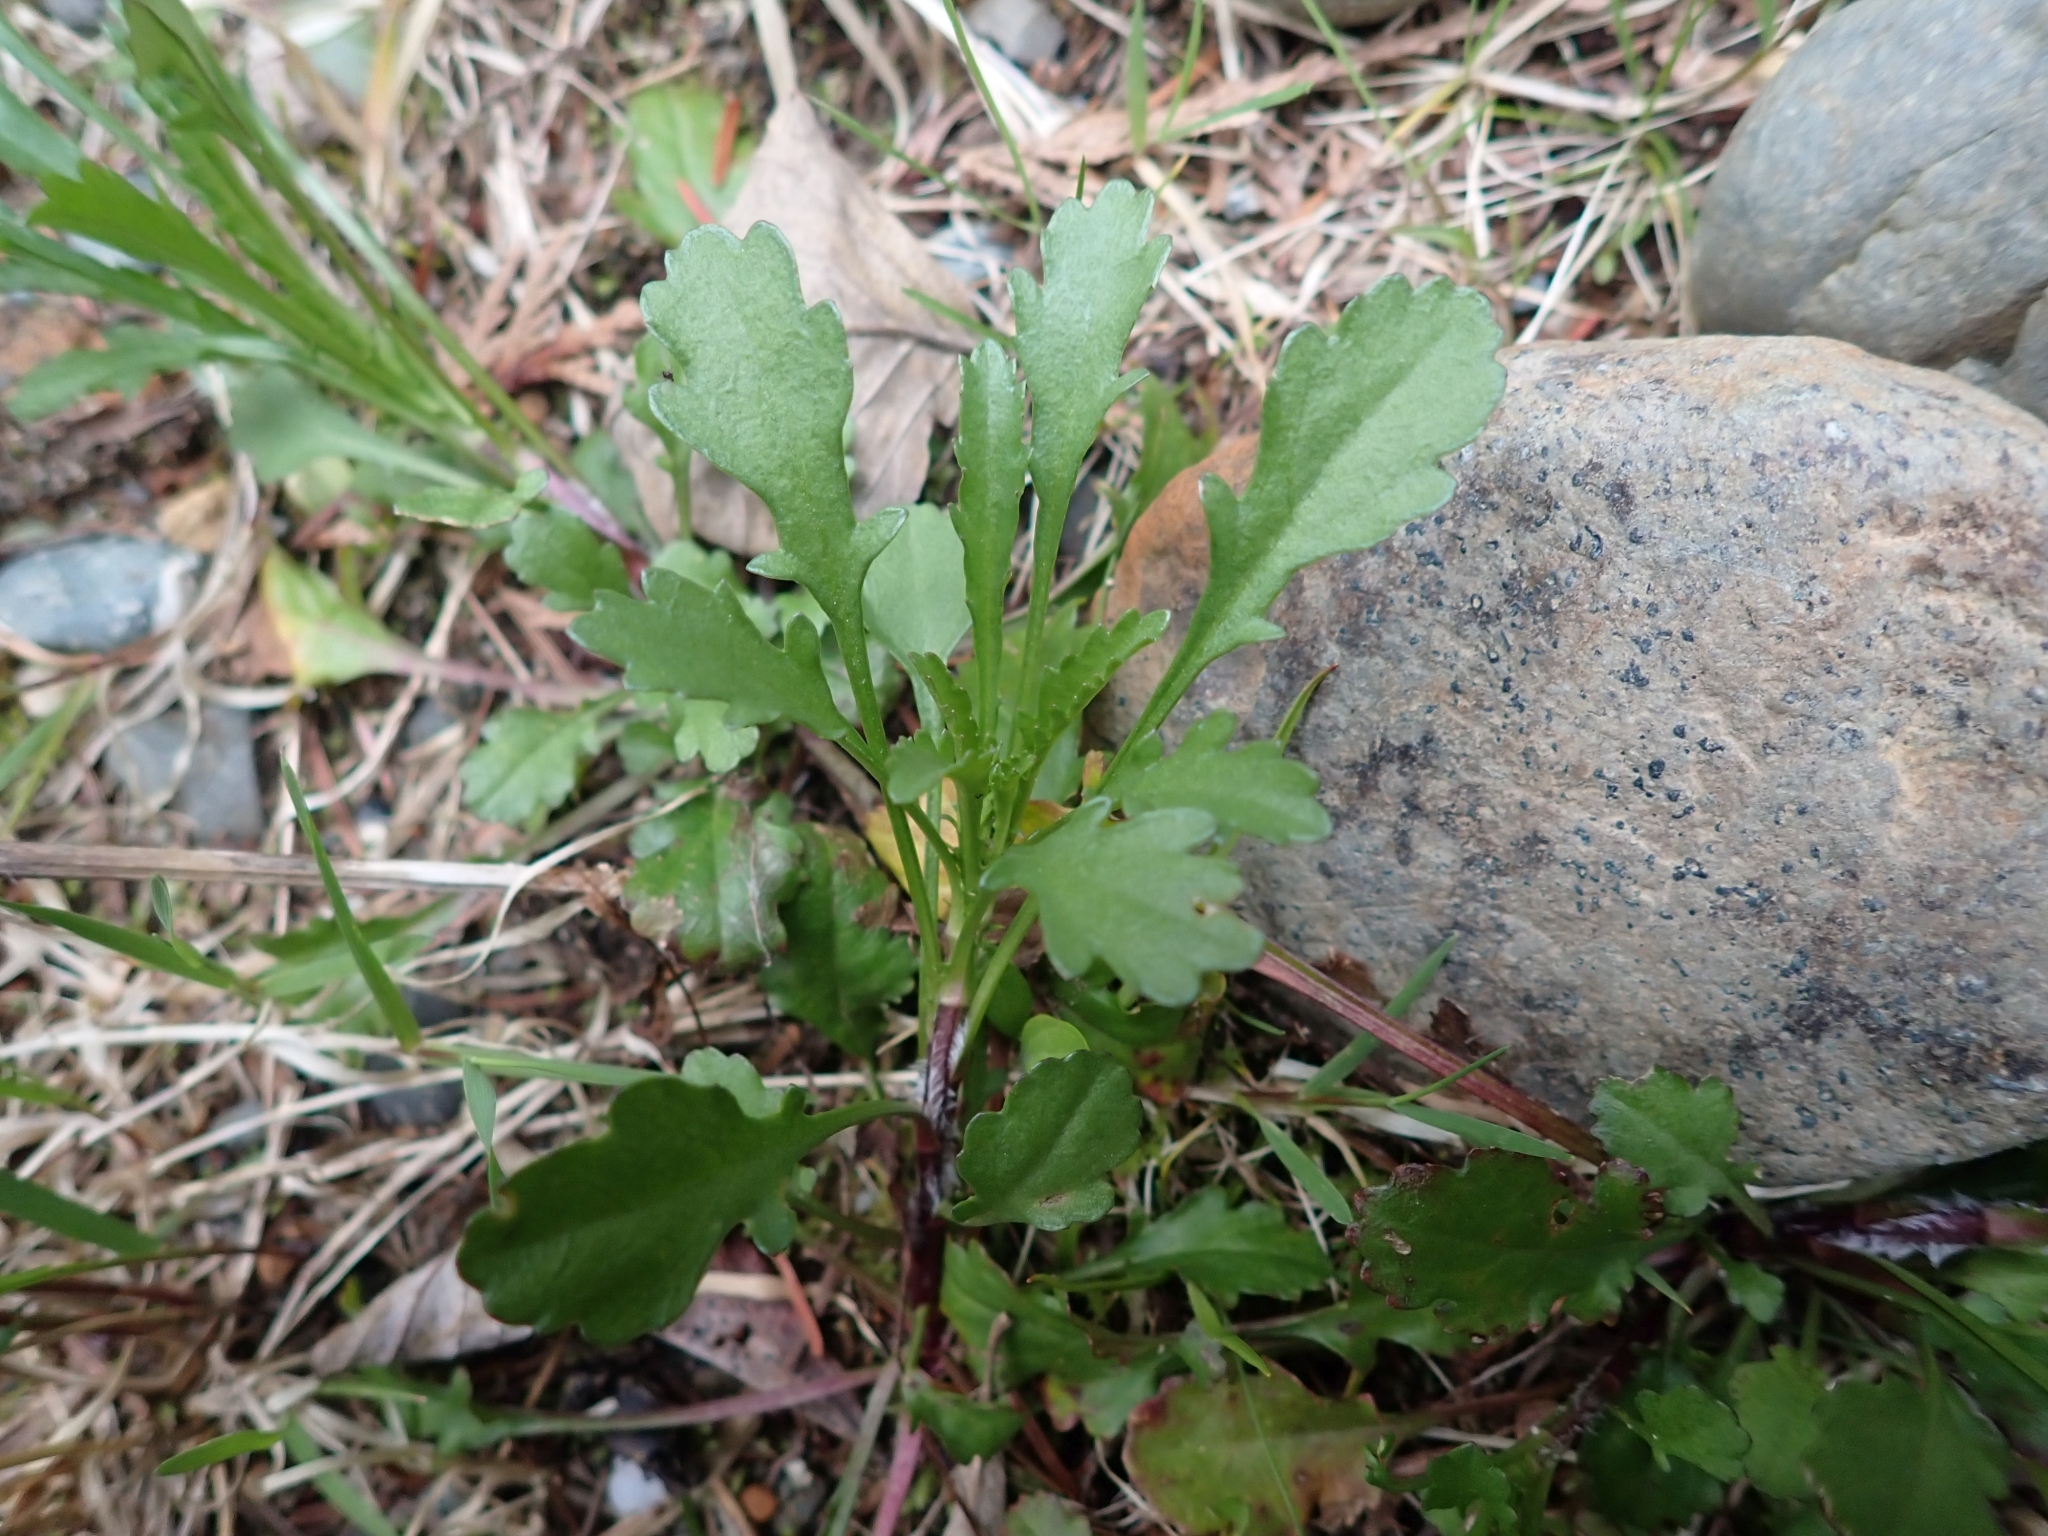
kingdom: Plantae
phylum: Tracheophyta
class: Magnoliopsida
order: Asterales
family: Asteraceae
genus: Leucanthemum
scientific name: Leucanthemum vulgare
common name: Oxeye daisy
